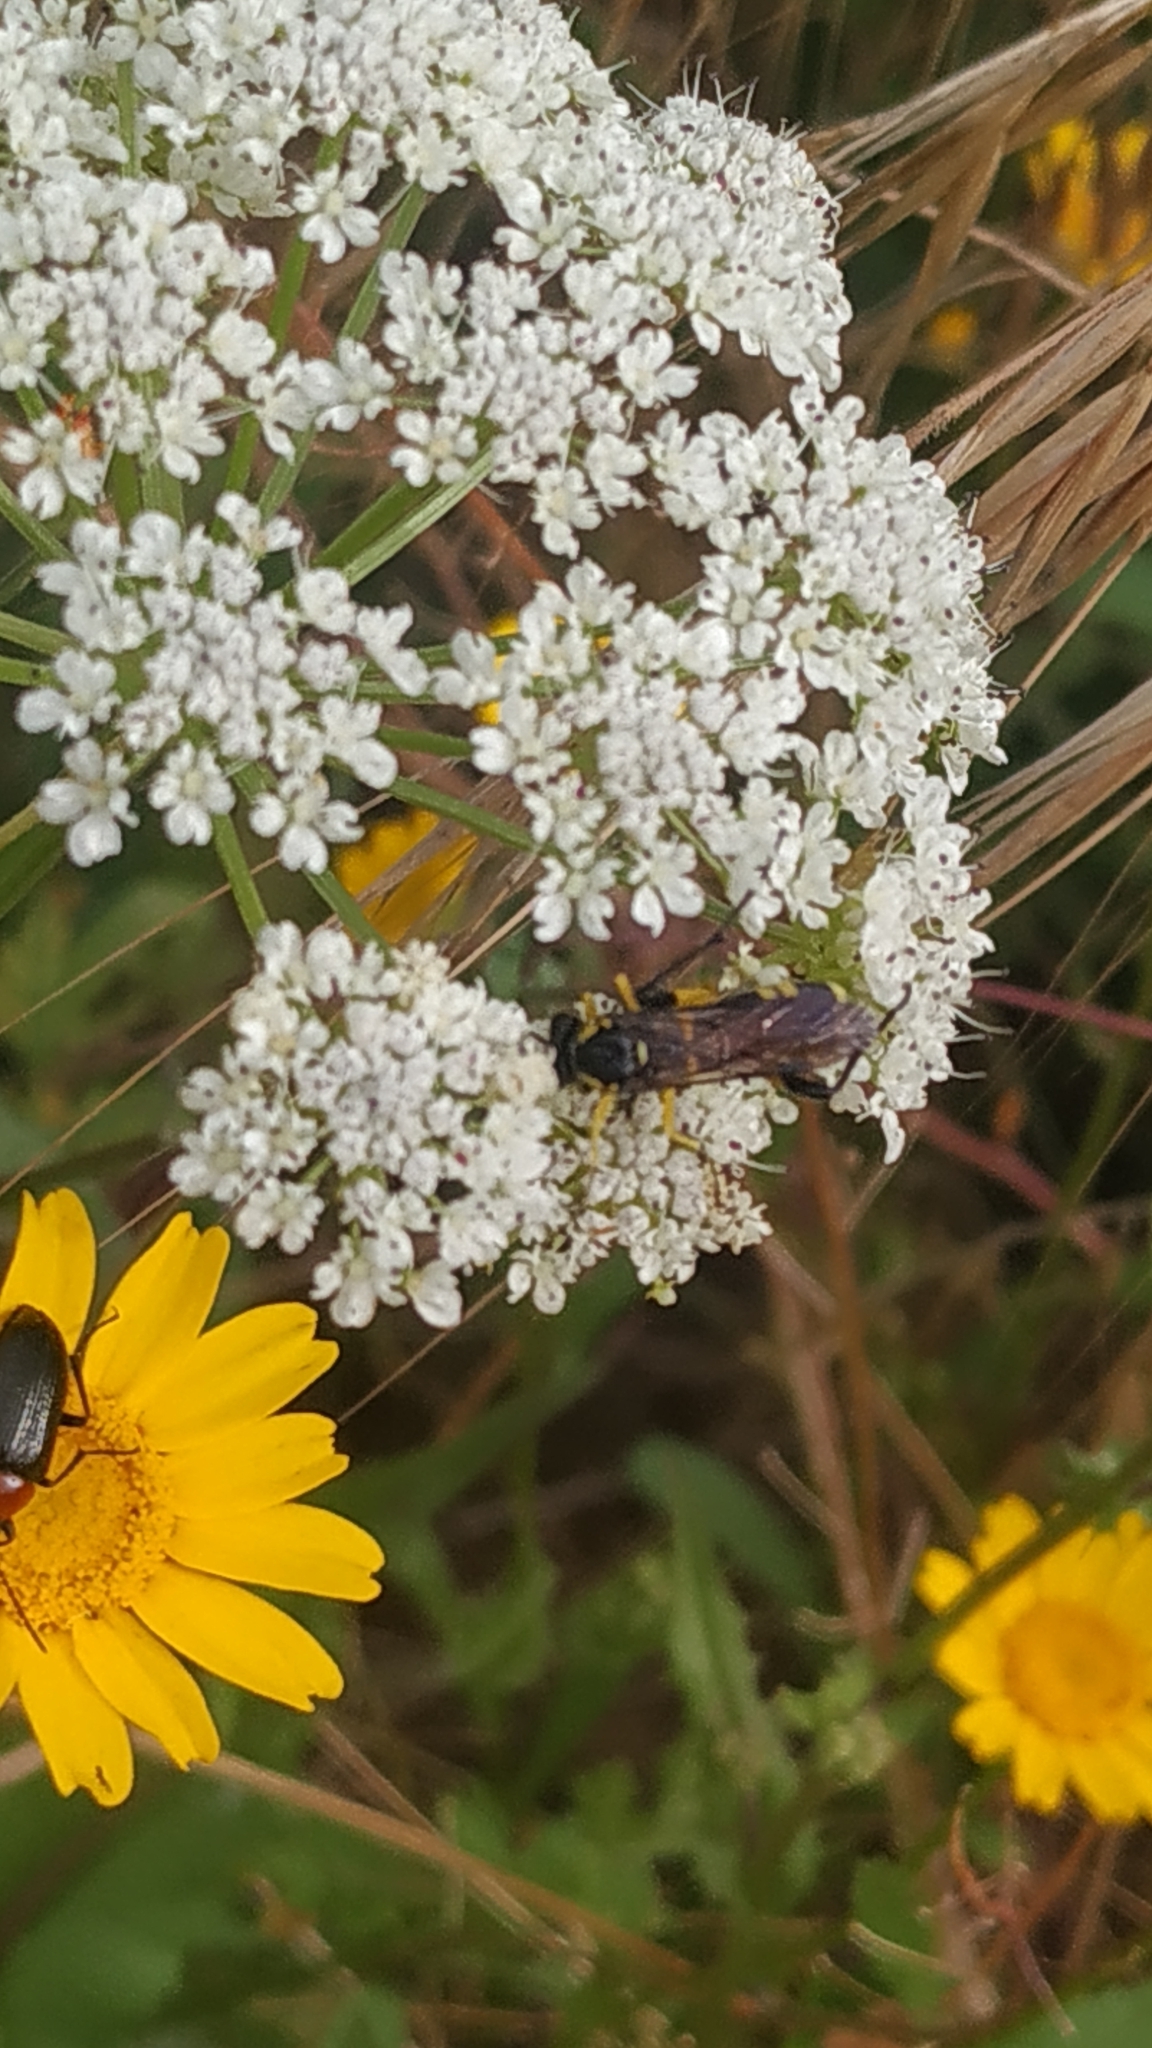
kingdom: Animalia
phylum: Arthropoda
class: Insecta
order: Hymenoptera
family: Tenthredinidae
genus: Macrophya
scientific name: Macrophya montana
